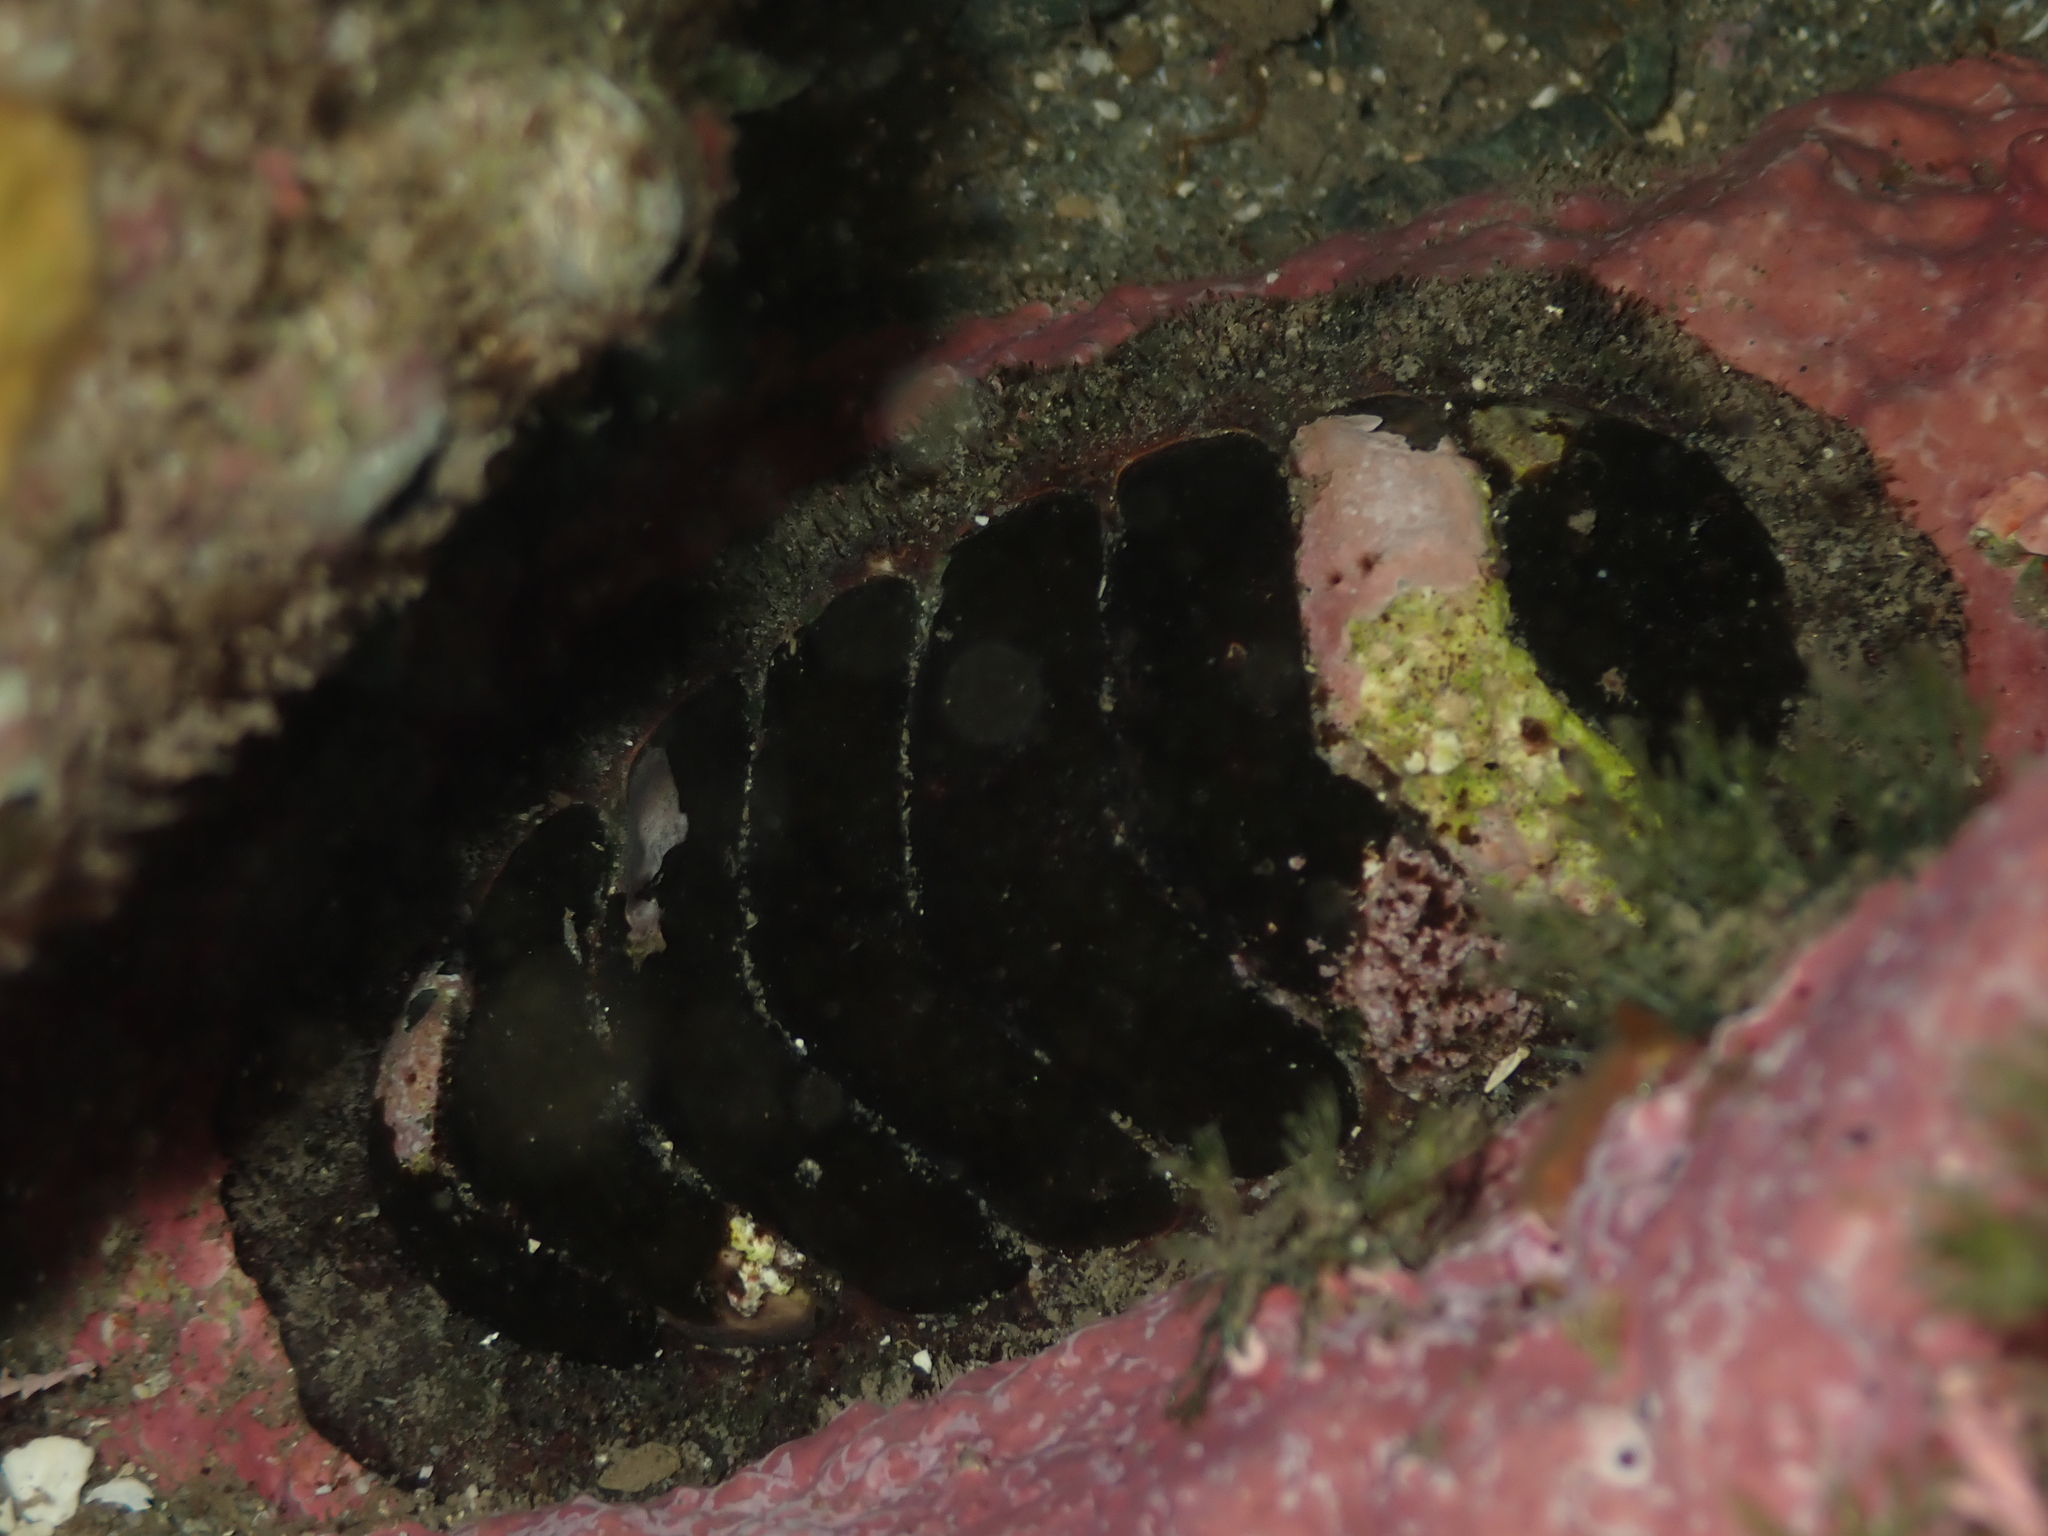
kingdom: Animalia
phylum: Mollusca
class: Polyplacophora
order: Callochitonida
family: Callochitonidae
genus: Eudoxochiton
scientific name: Eudoxochiton nobilis
